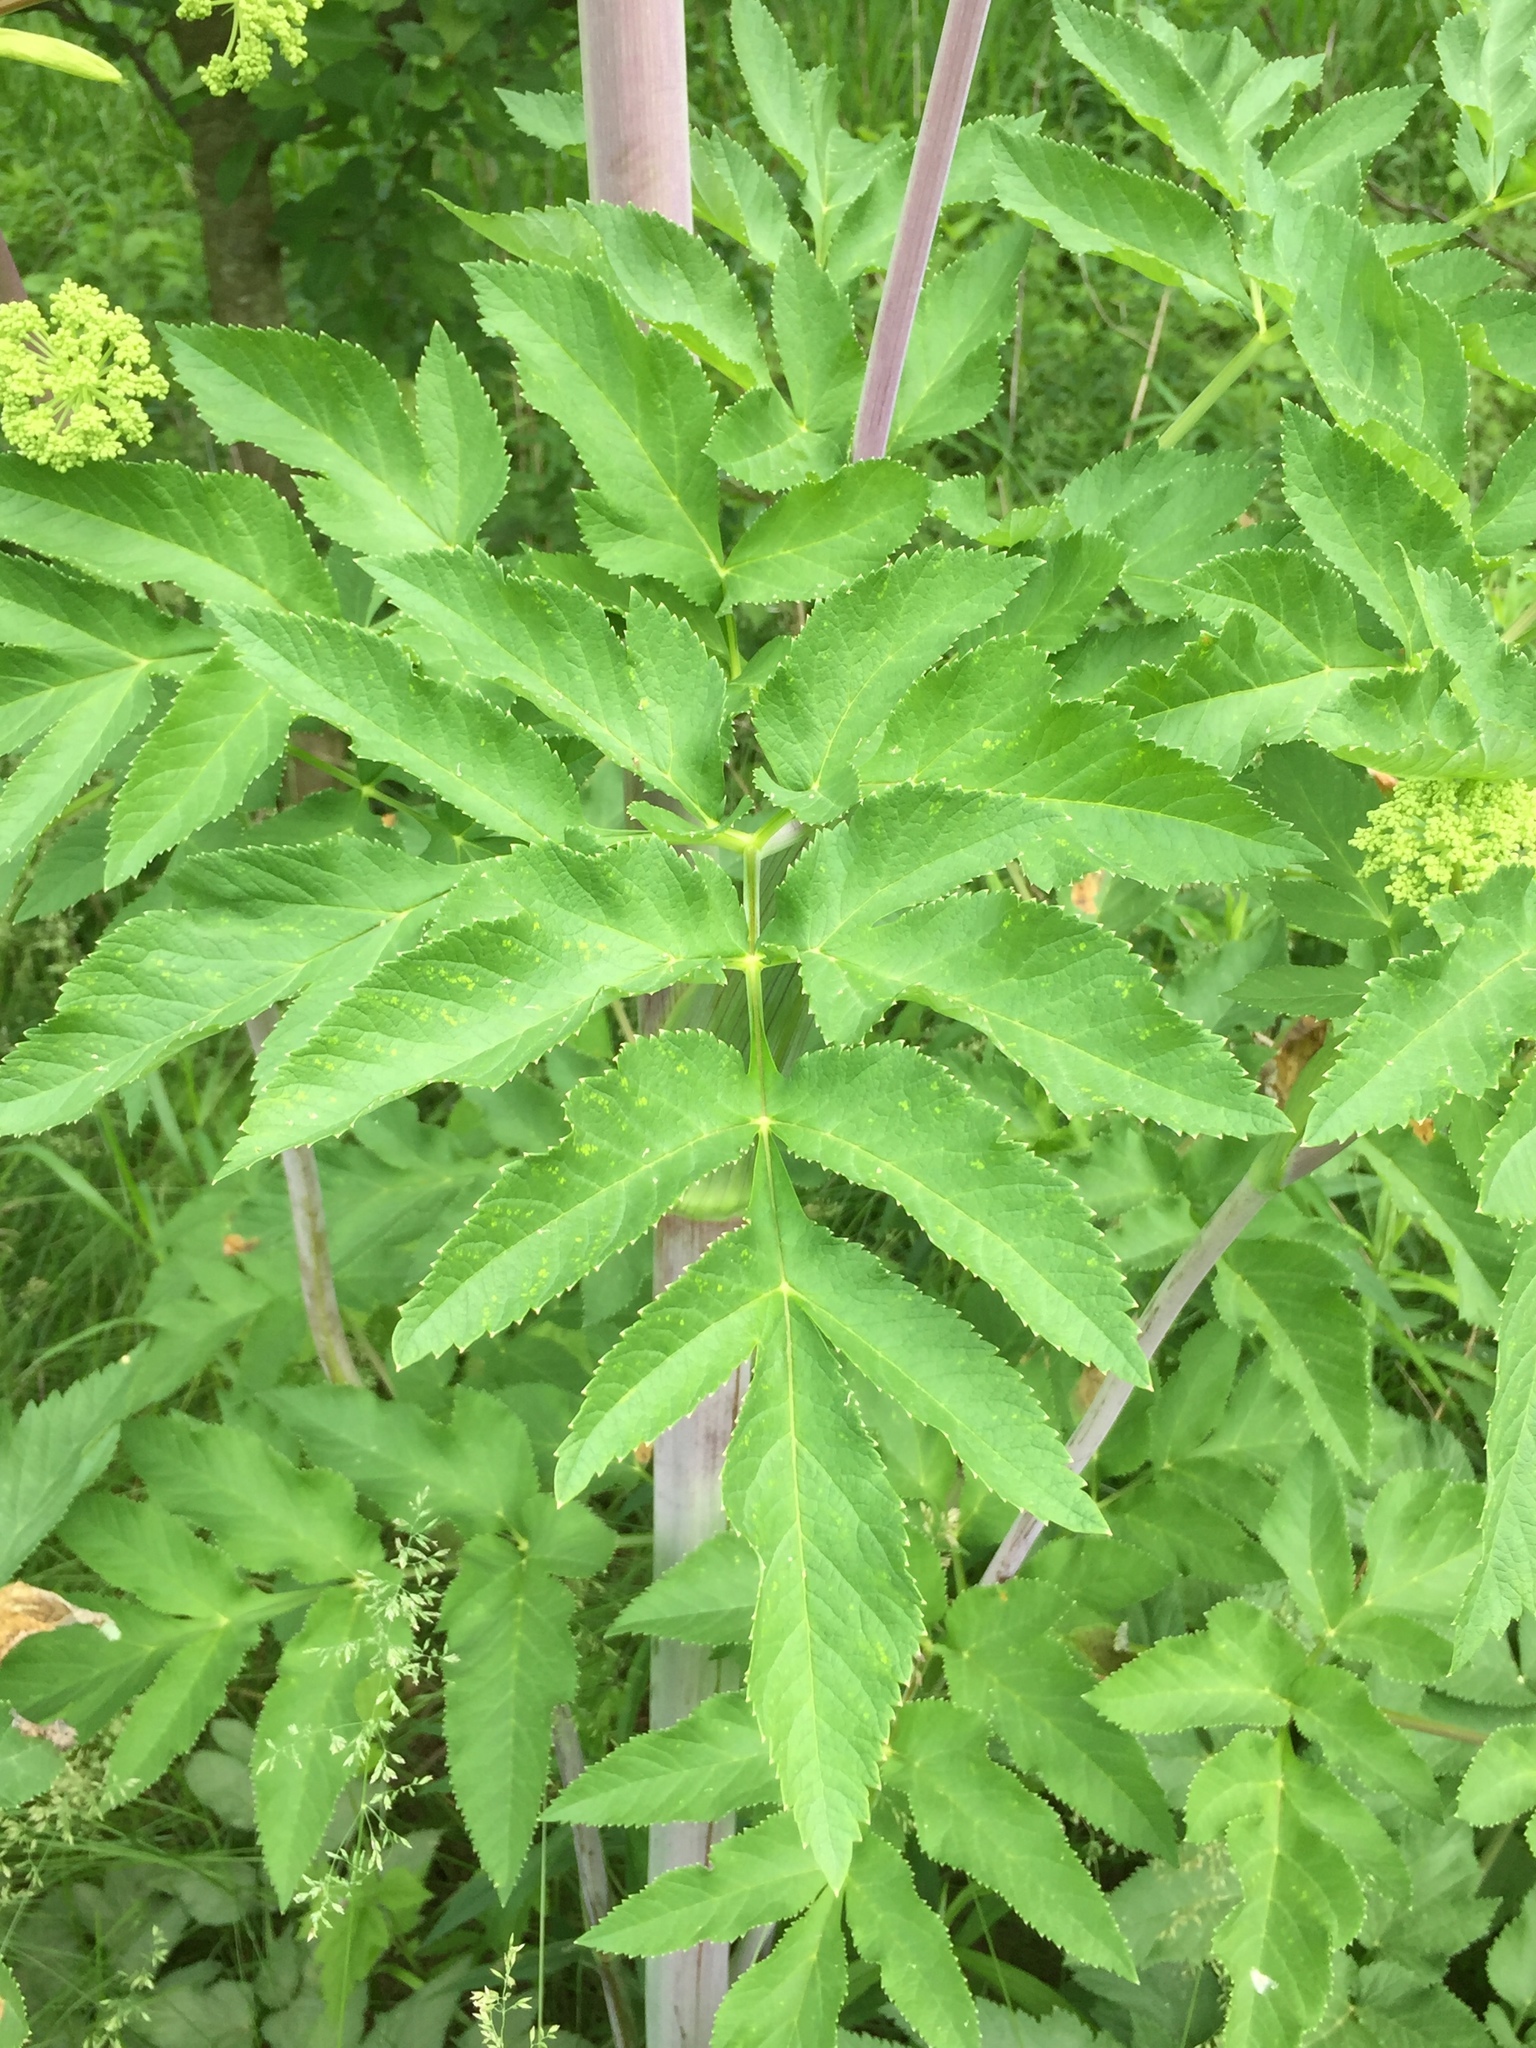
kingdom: Plantae
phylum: Tracheophyta
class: Magnoliopsida
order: Apiales
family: Apiaceae
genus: Angelica
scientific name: Angelica atropurpurea
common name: Great angelica
